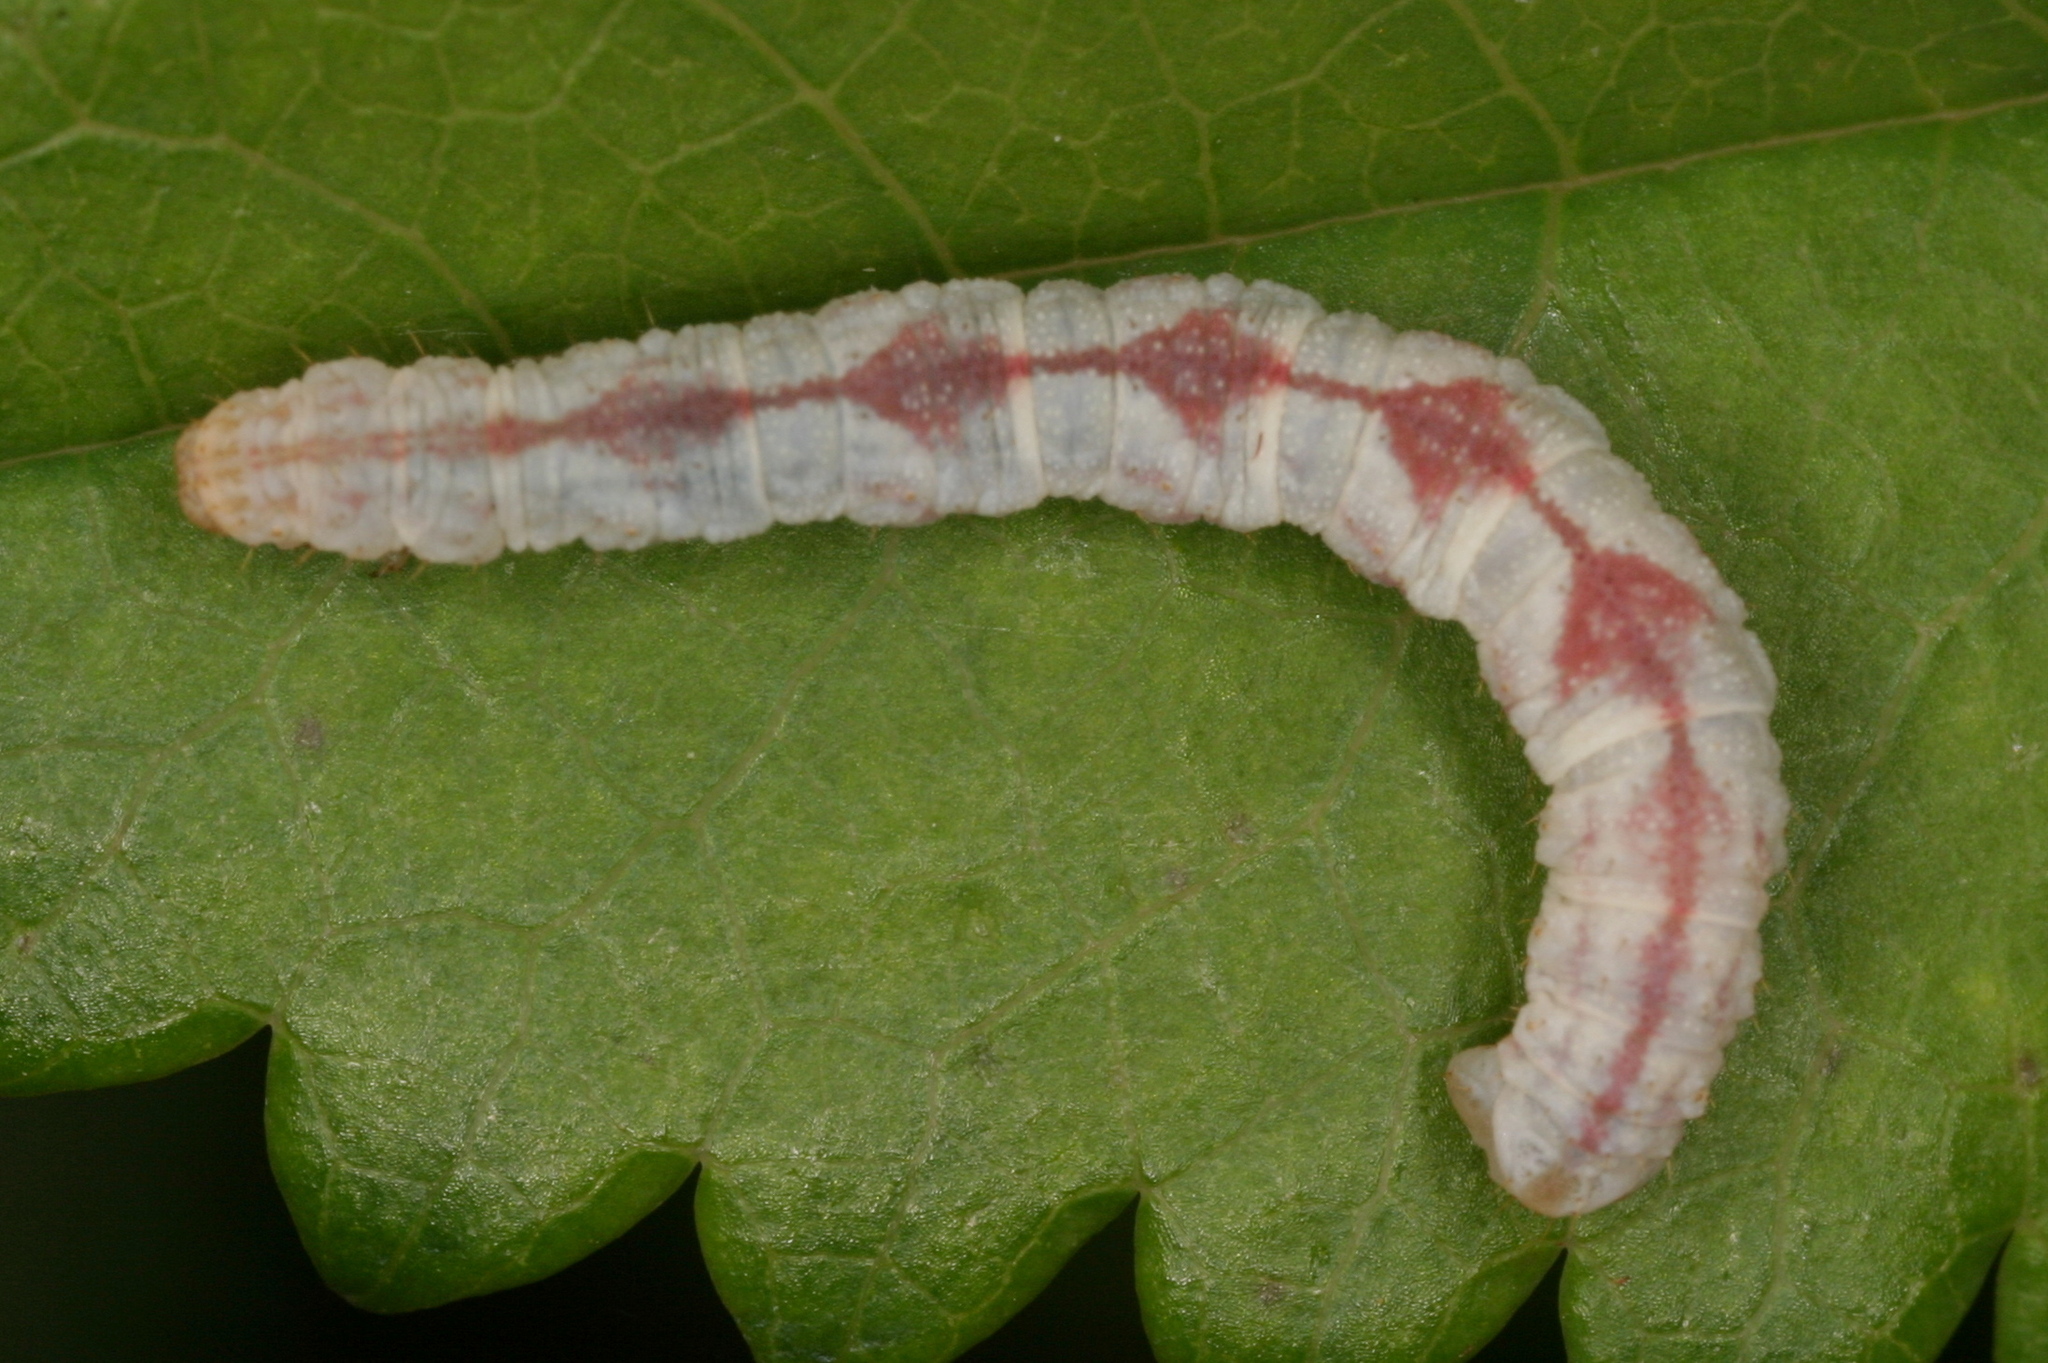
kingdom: Animalia
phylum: Arthropoda
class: Insecta
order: Lepidoptera
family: Geometridae
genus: Eupithecia
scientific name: Eupithecia satyrata
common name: Satyr pug
